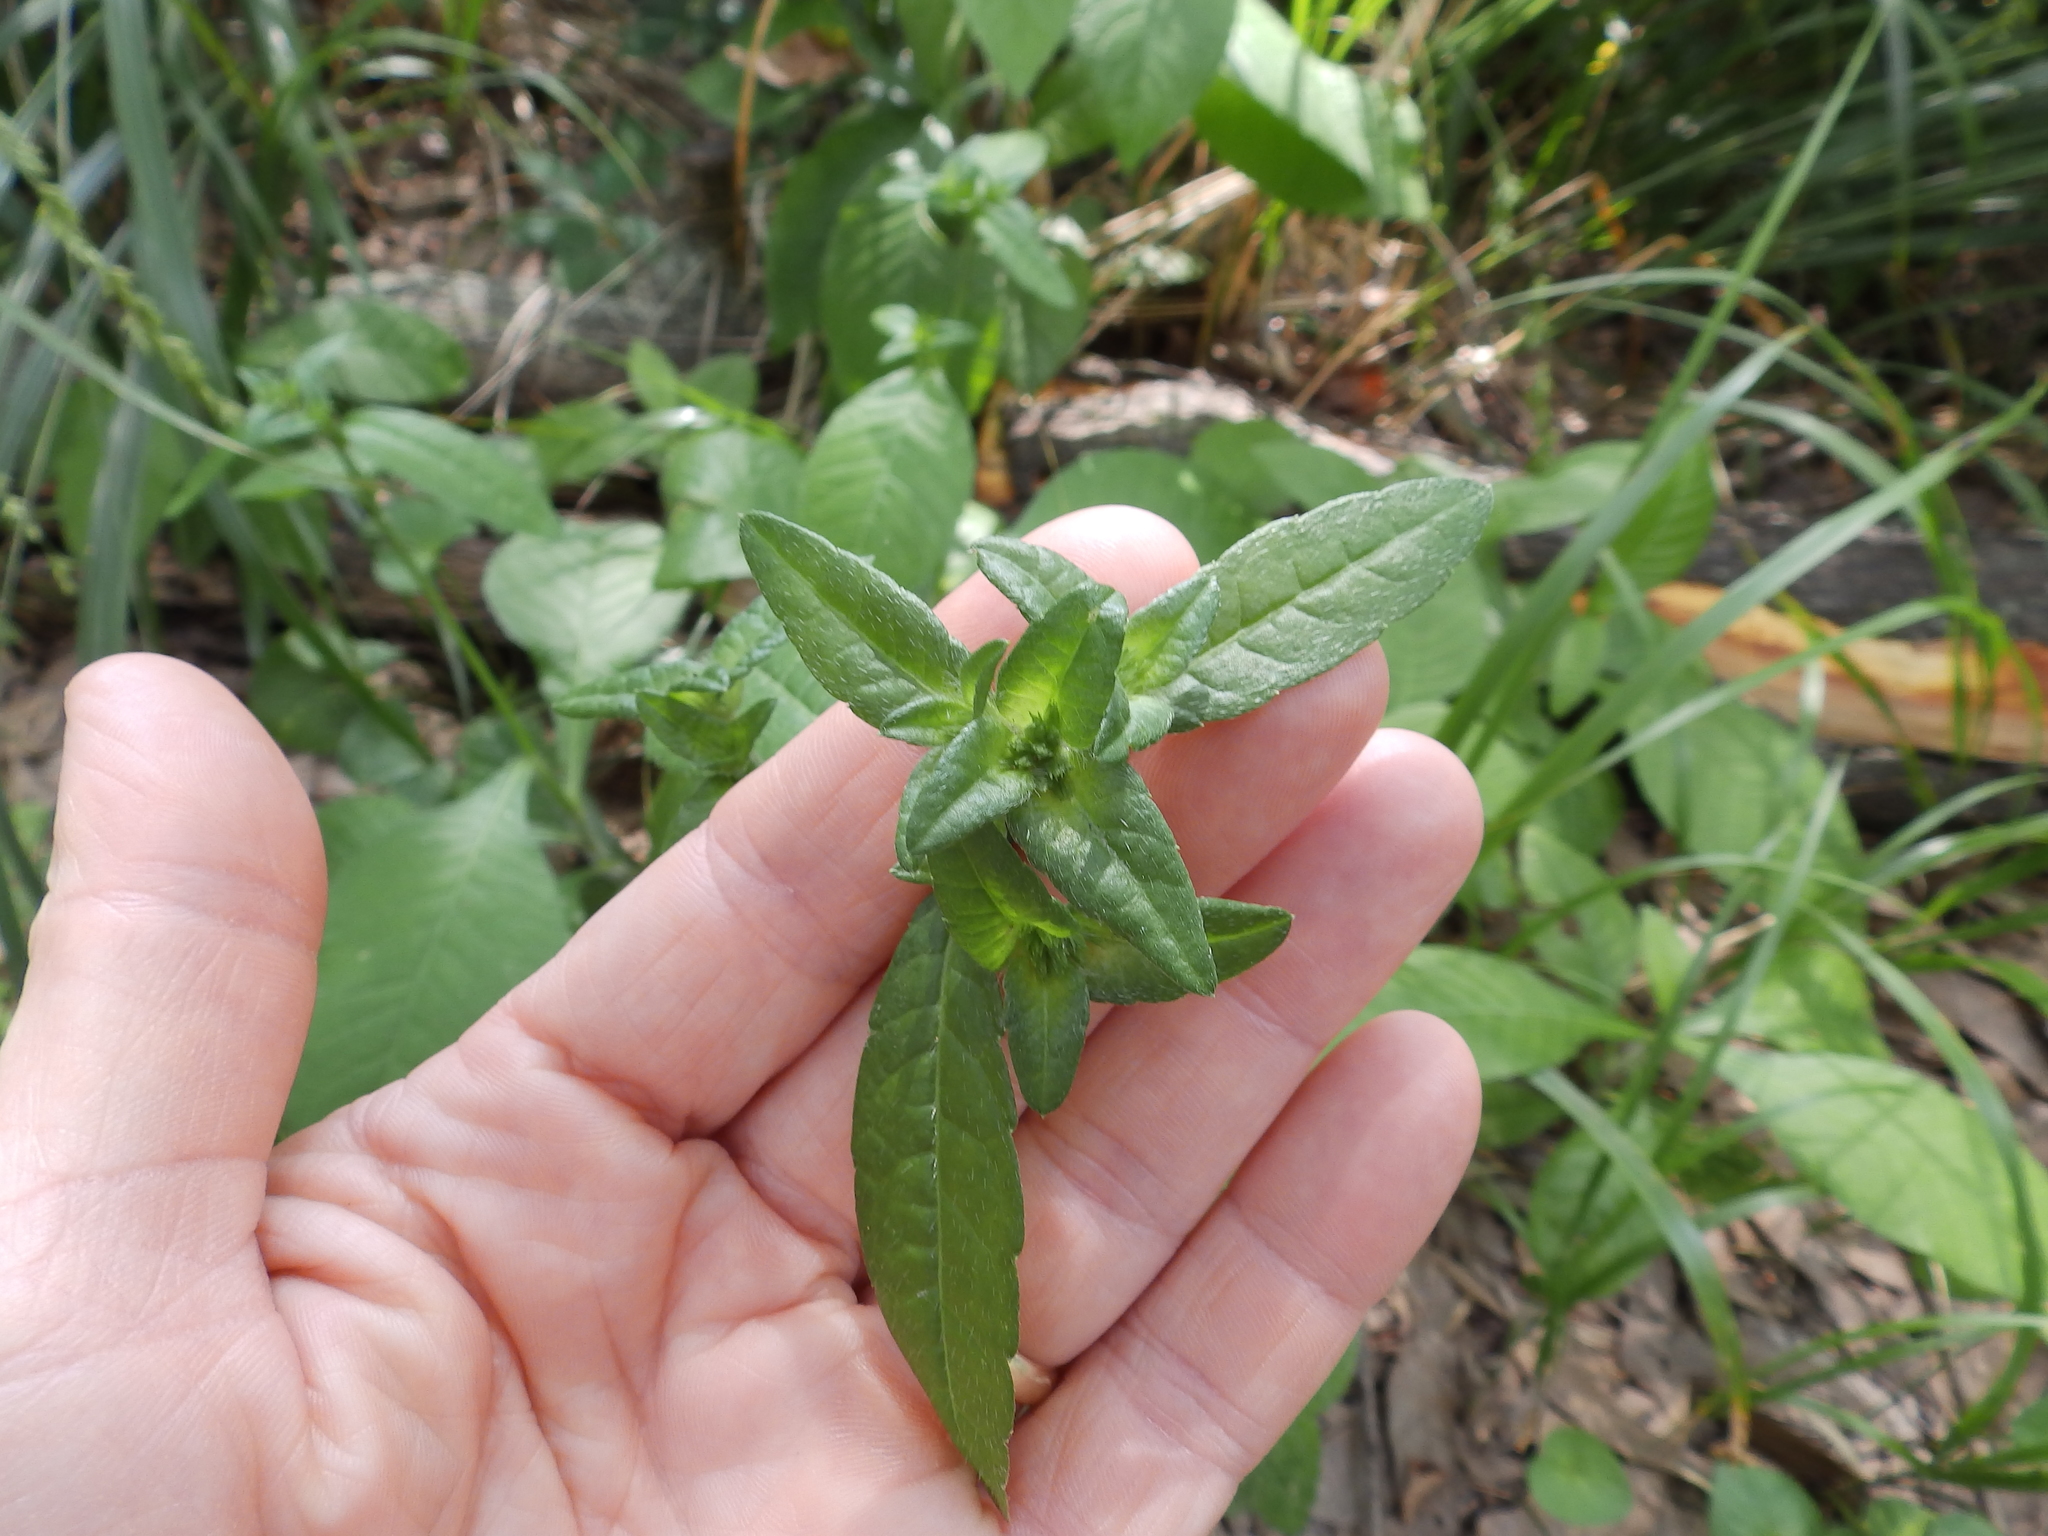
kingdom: Plantae
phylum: Tracheophyta
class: Magnoliopsida
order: Asterales
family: Asteraceae
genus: Elephantopus
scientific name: Elephantopus carolinianus
